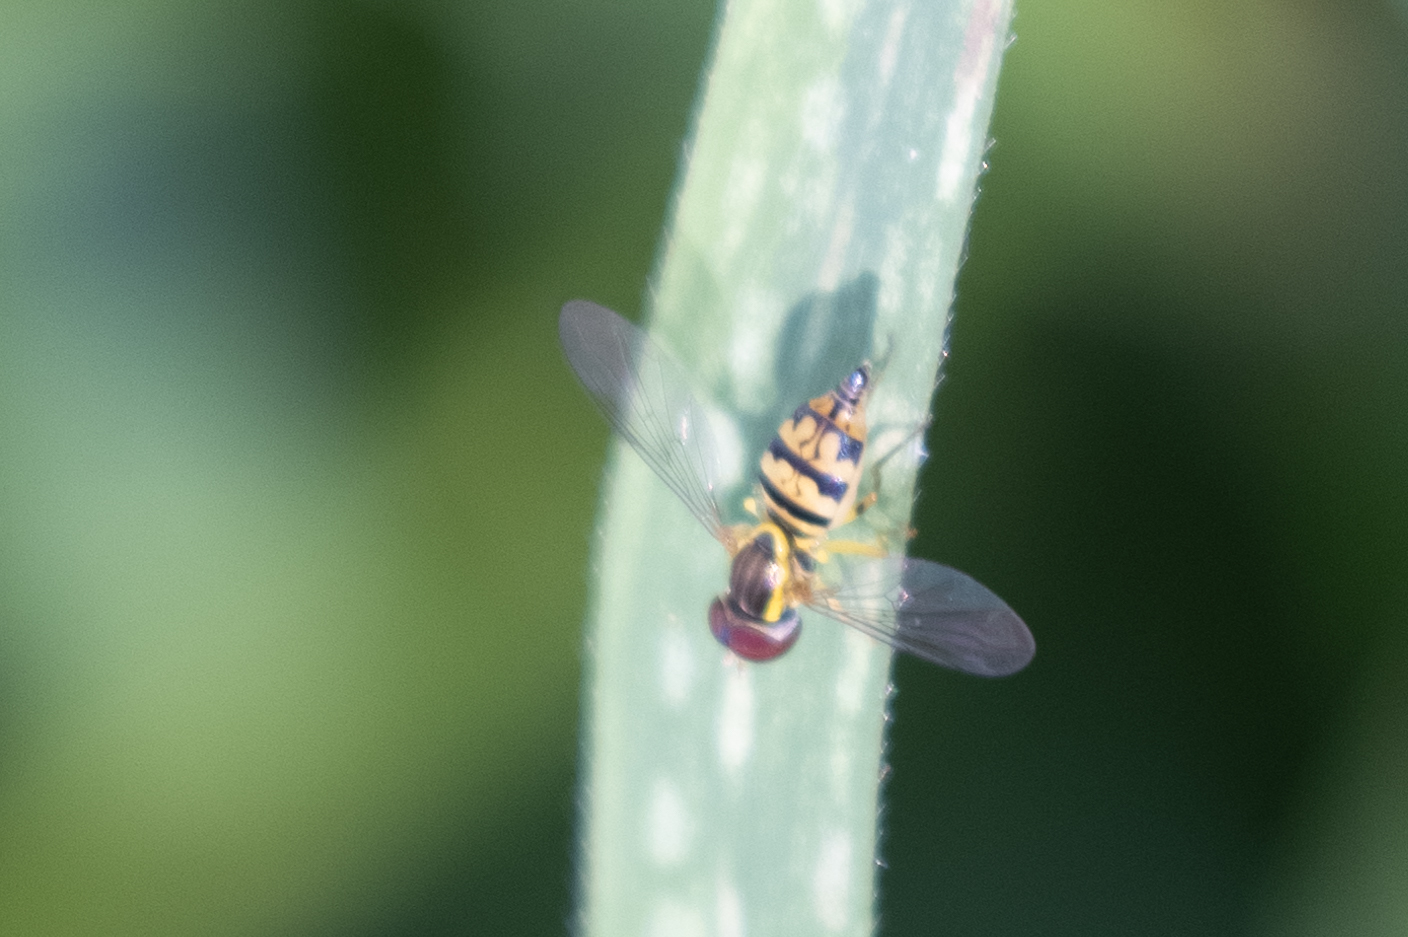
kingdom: Animalia
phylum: Arthropoda
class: Insecta
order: Diptera
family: Syrphidae
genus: Toxomerus
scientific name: Toxomerus geminatus
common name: Eastern calligrapher
